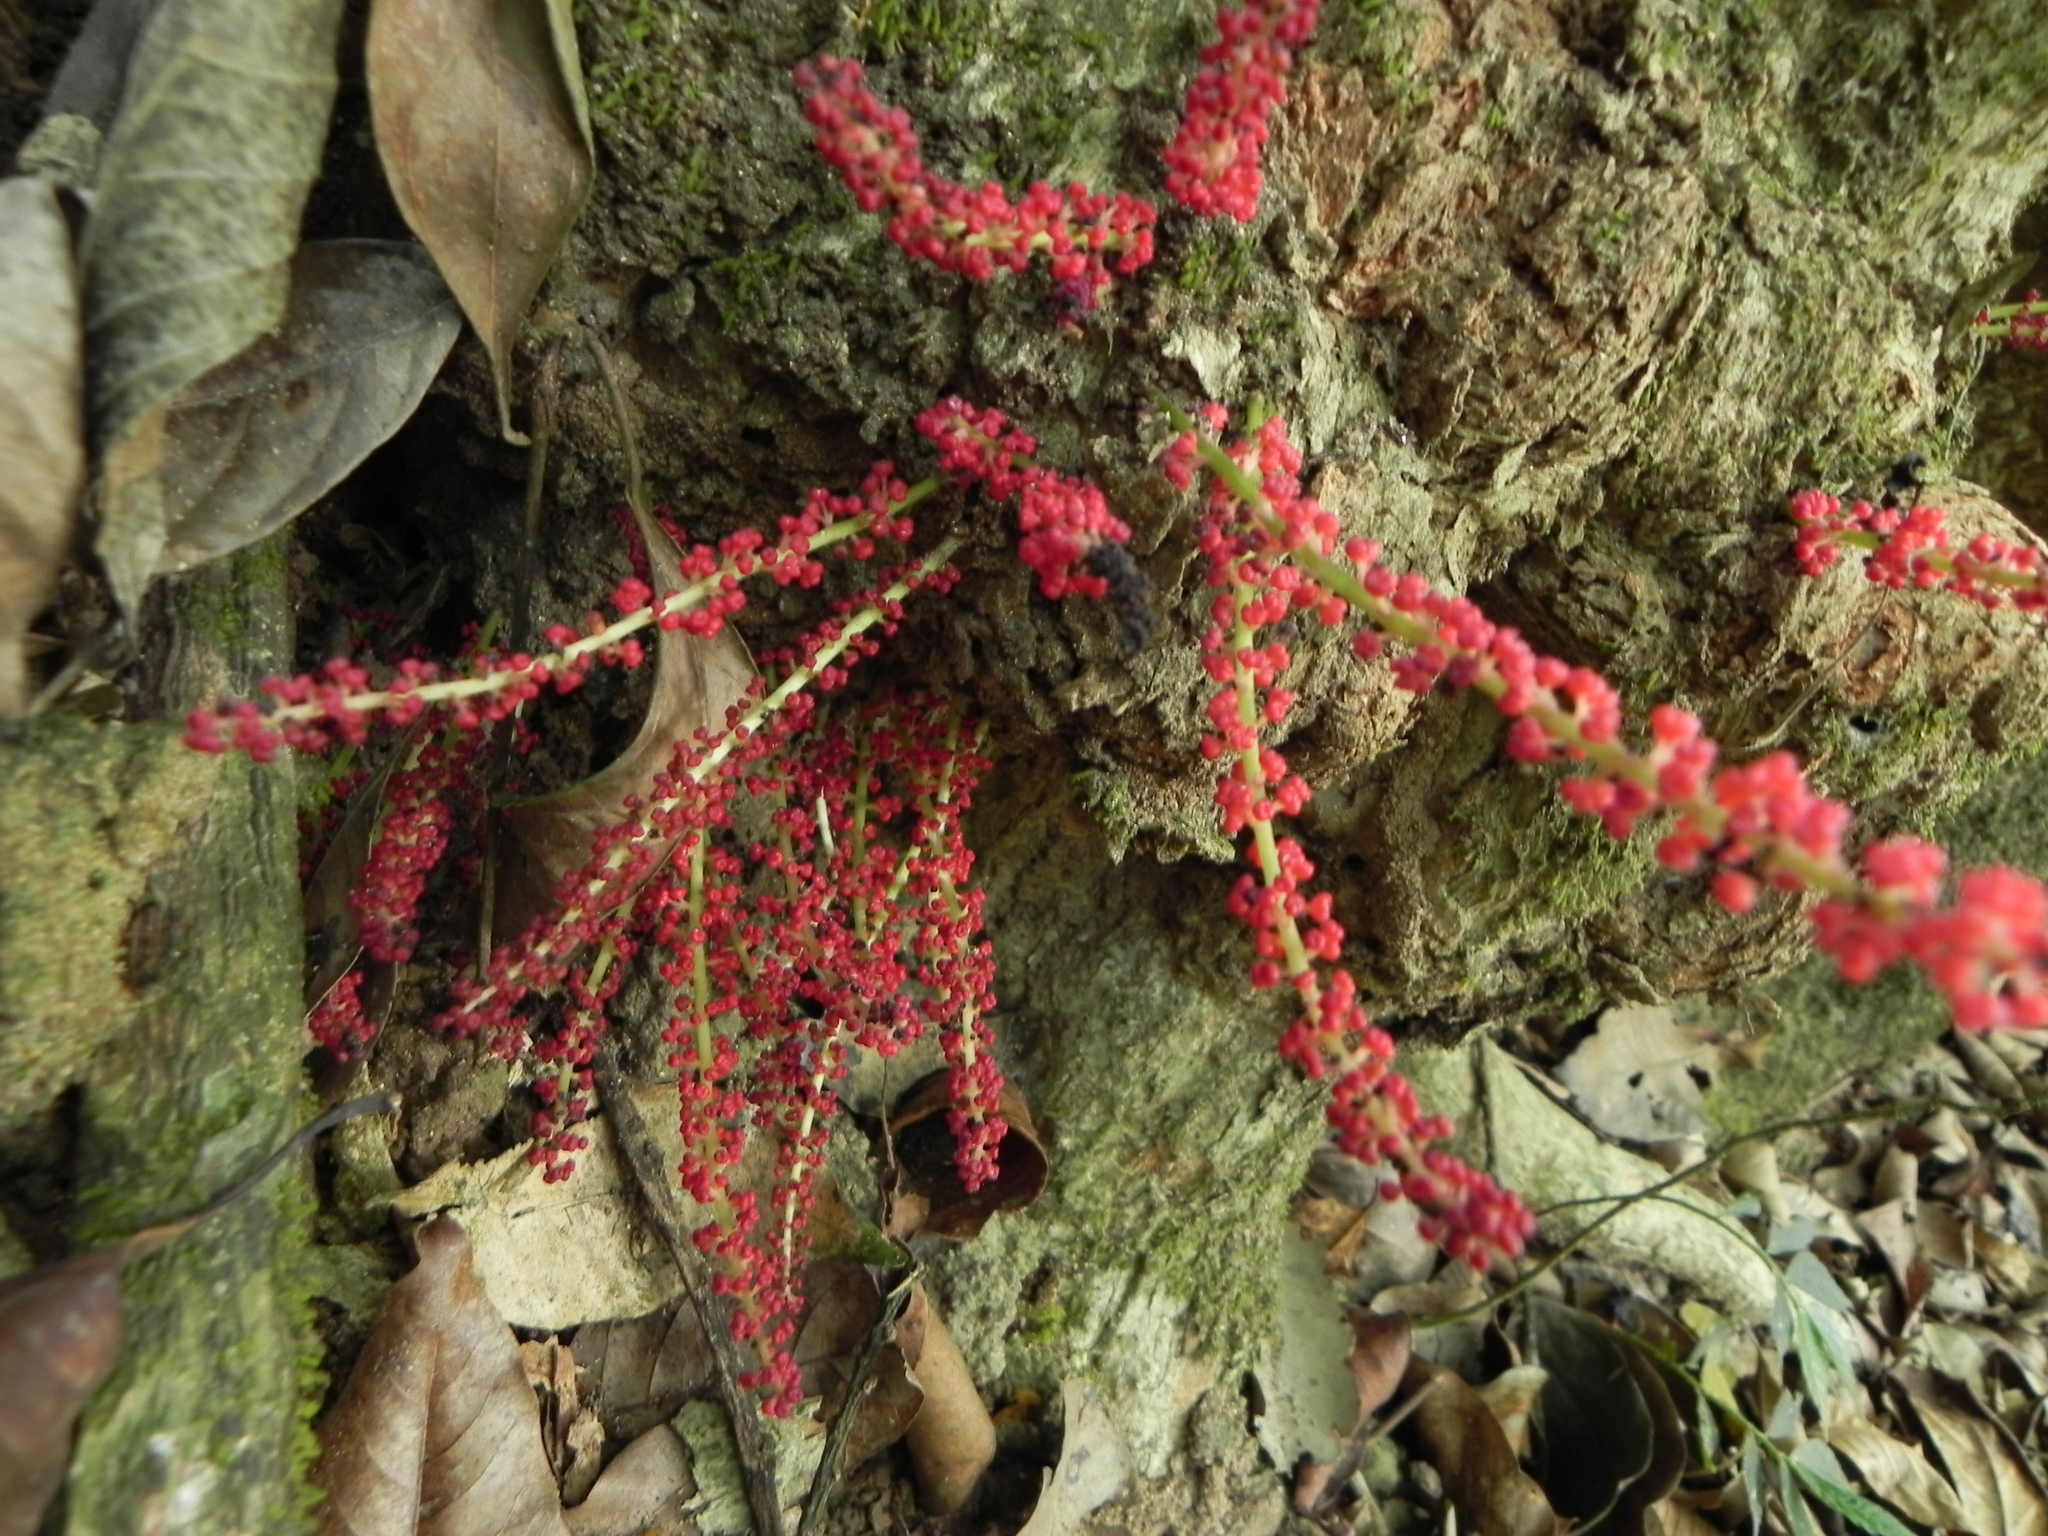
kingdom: Plantae
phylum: Tracheophyta
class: Magnoliopsida
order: Malpighiales
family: Phyllanthaceae
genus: Baccaurea
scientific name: Baccaurea courtallensis
